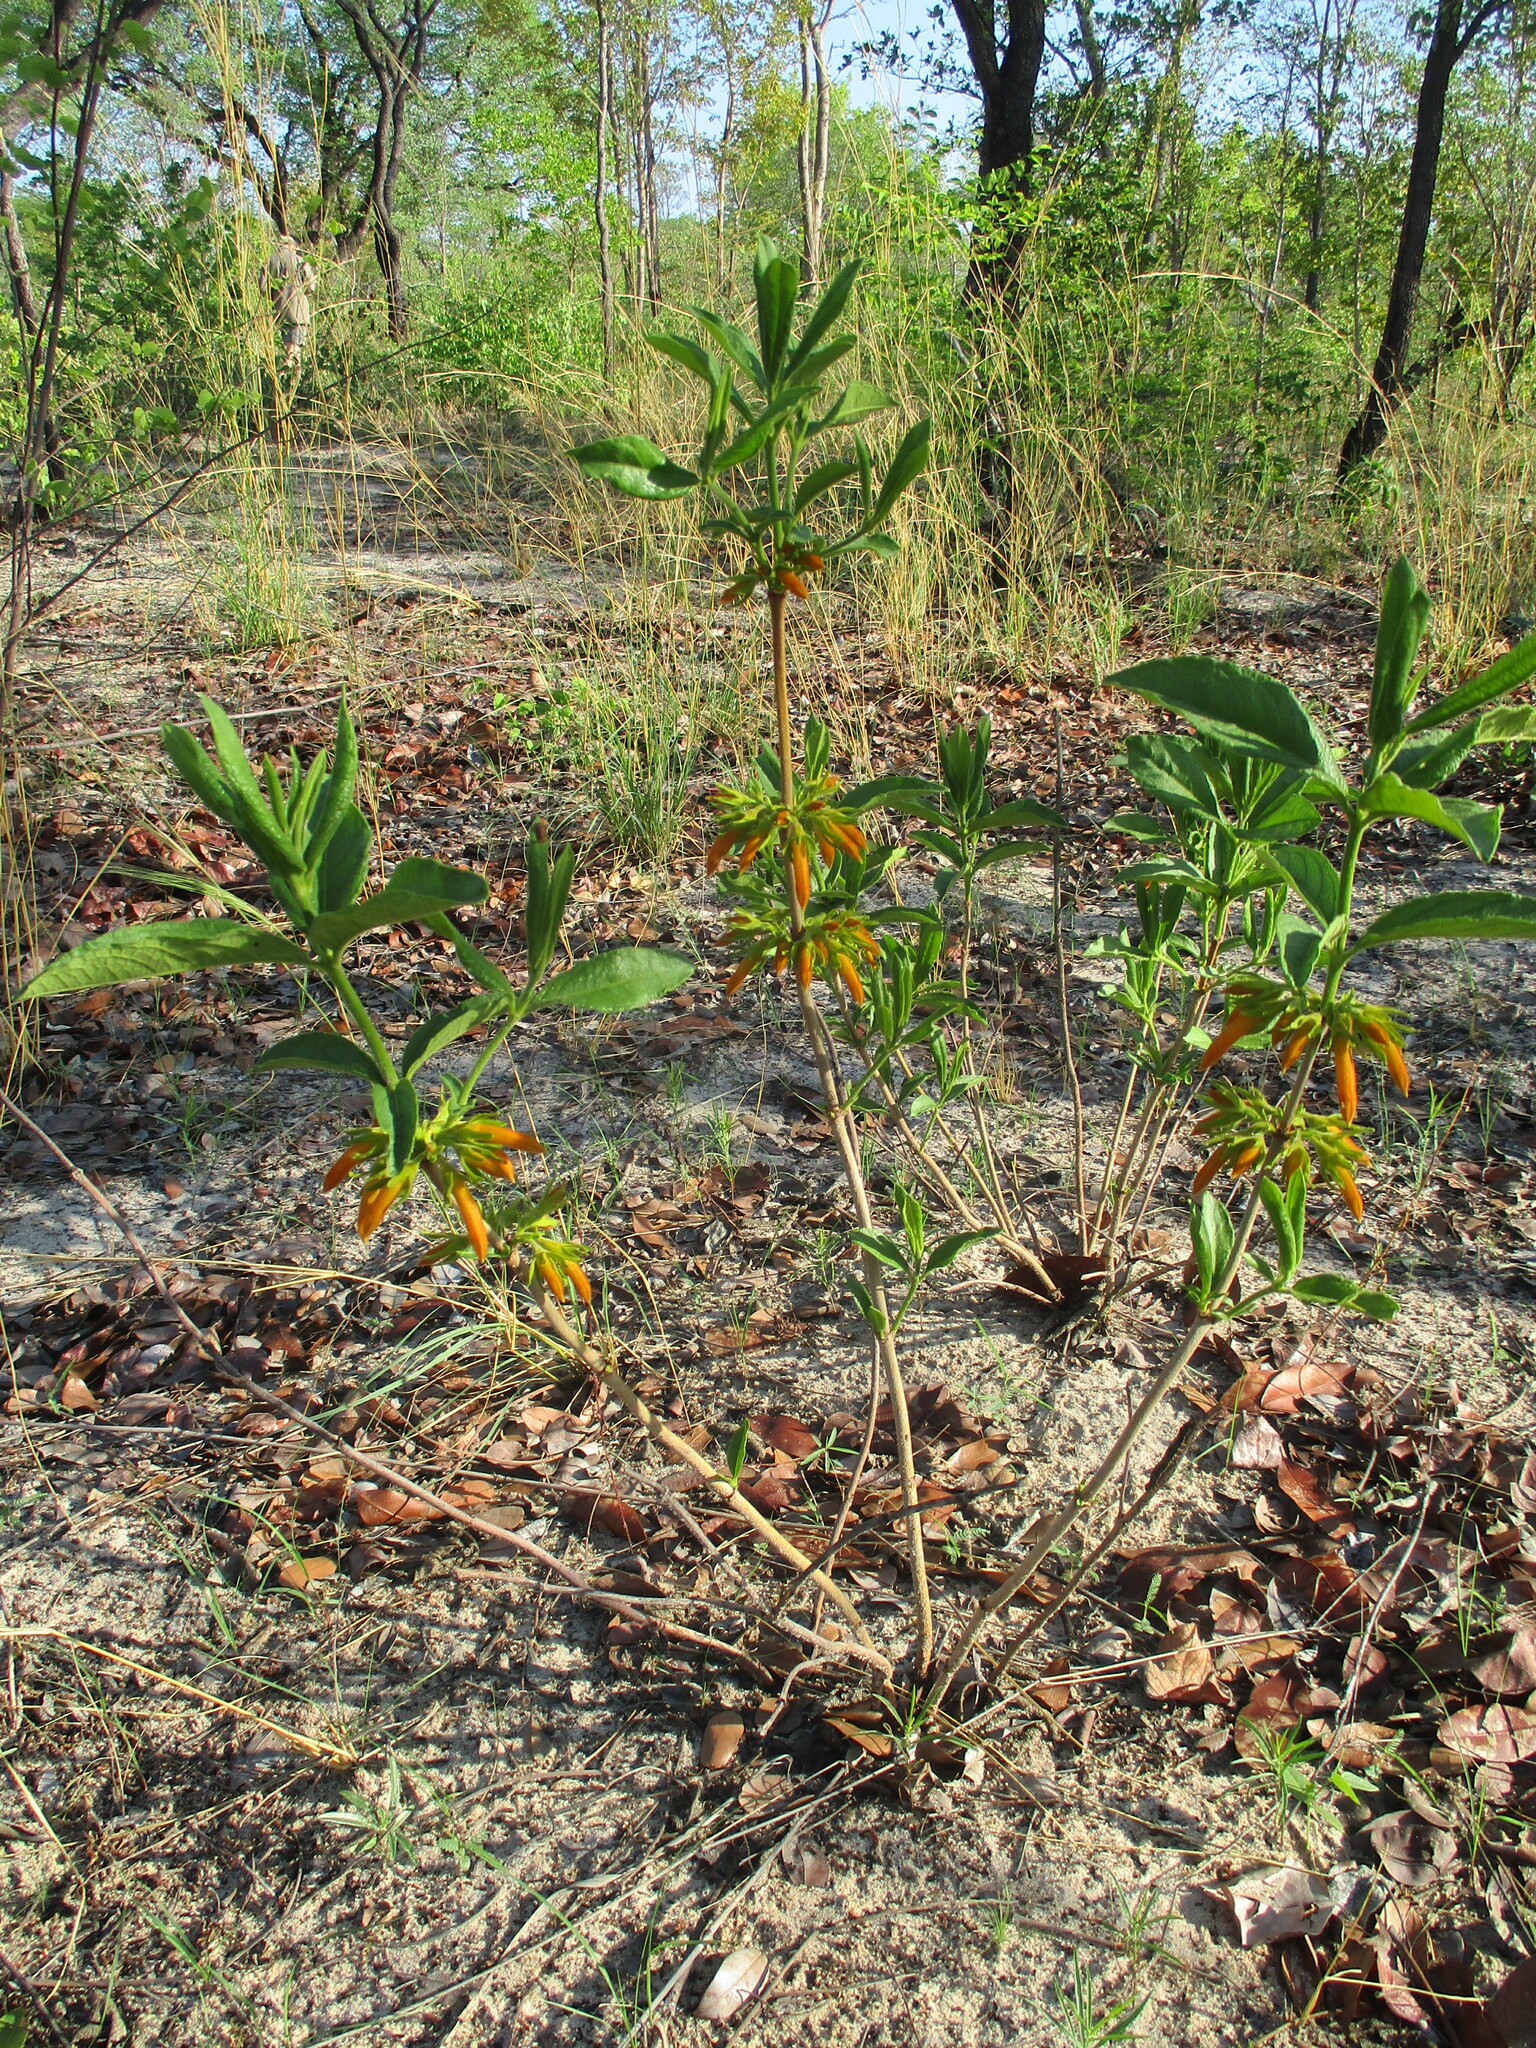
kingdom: Plantae
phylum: Tracheophyta
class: Magnoliopsida
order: Gentianales
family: Rubiaceae
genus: Vangueria
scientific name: Vangueria ferruginea
